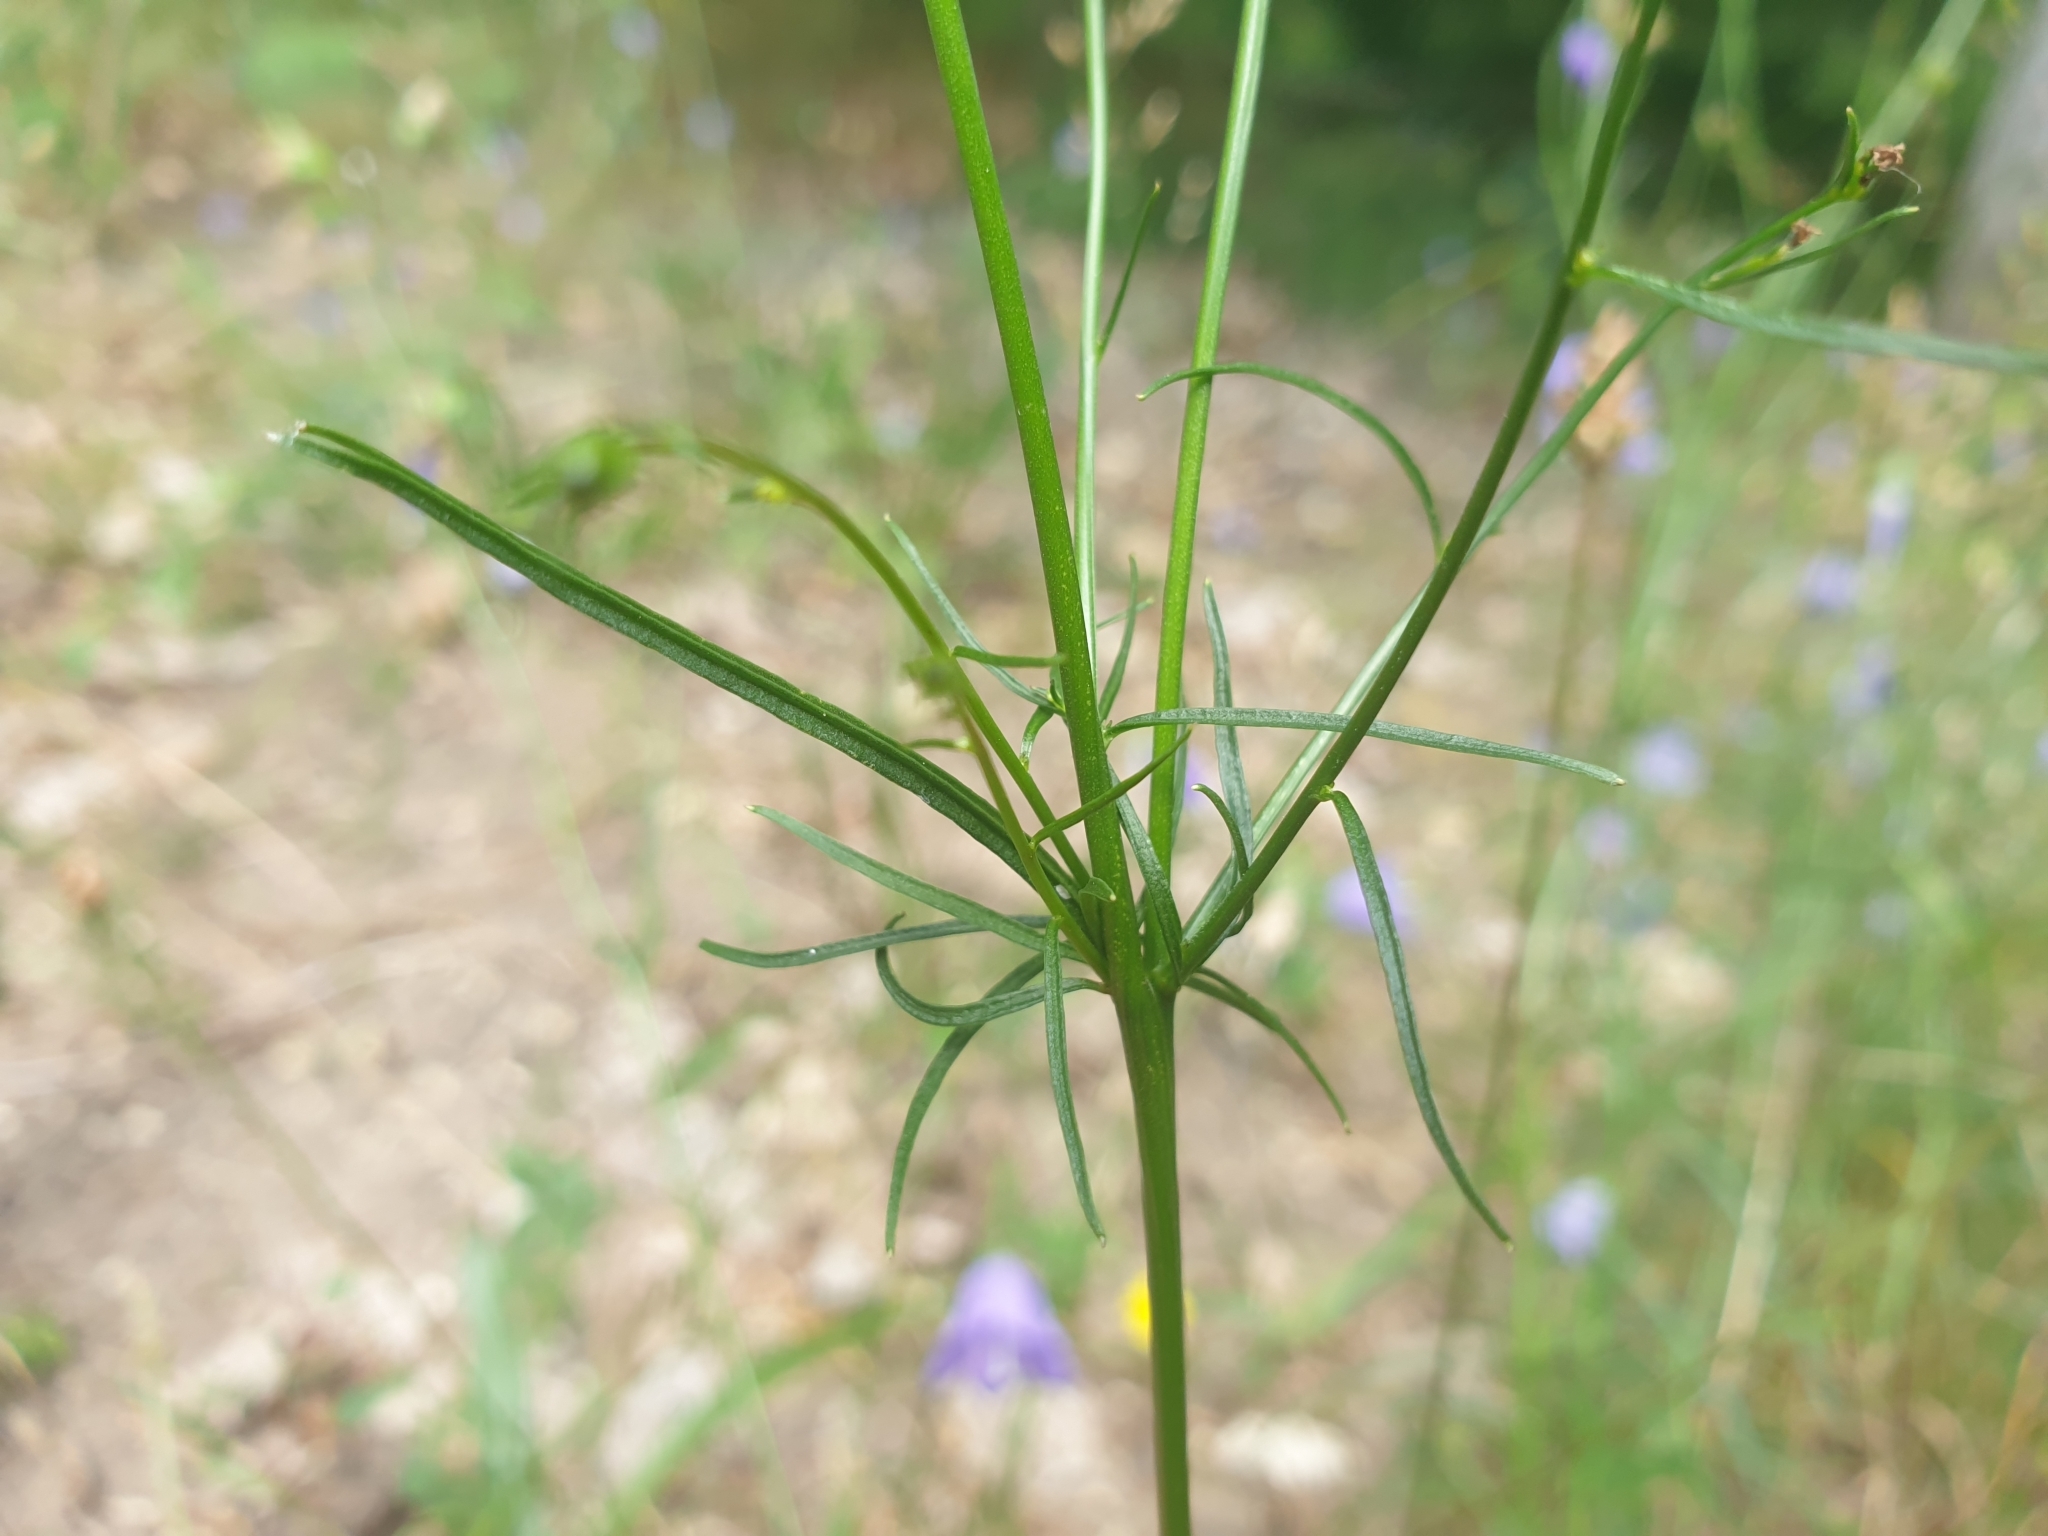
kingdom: Plantae
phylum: Tracheophyta
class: Magnoliopsida
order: Asterales
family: Campanulaceae
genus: Campanula
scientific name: Campanula rotundifolia
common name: Harebell
